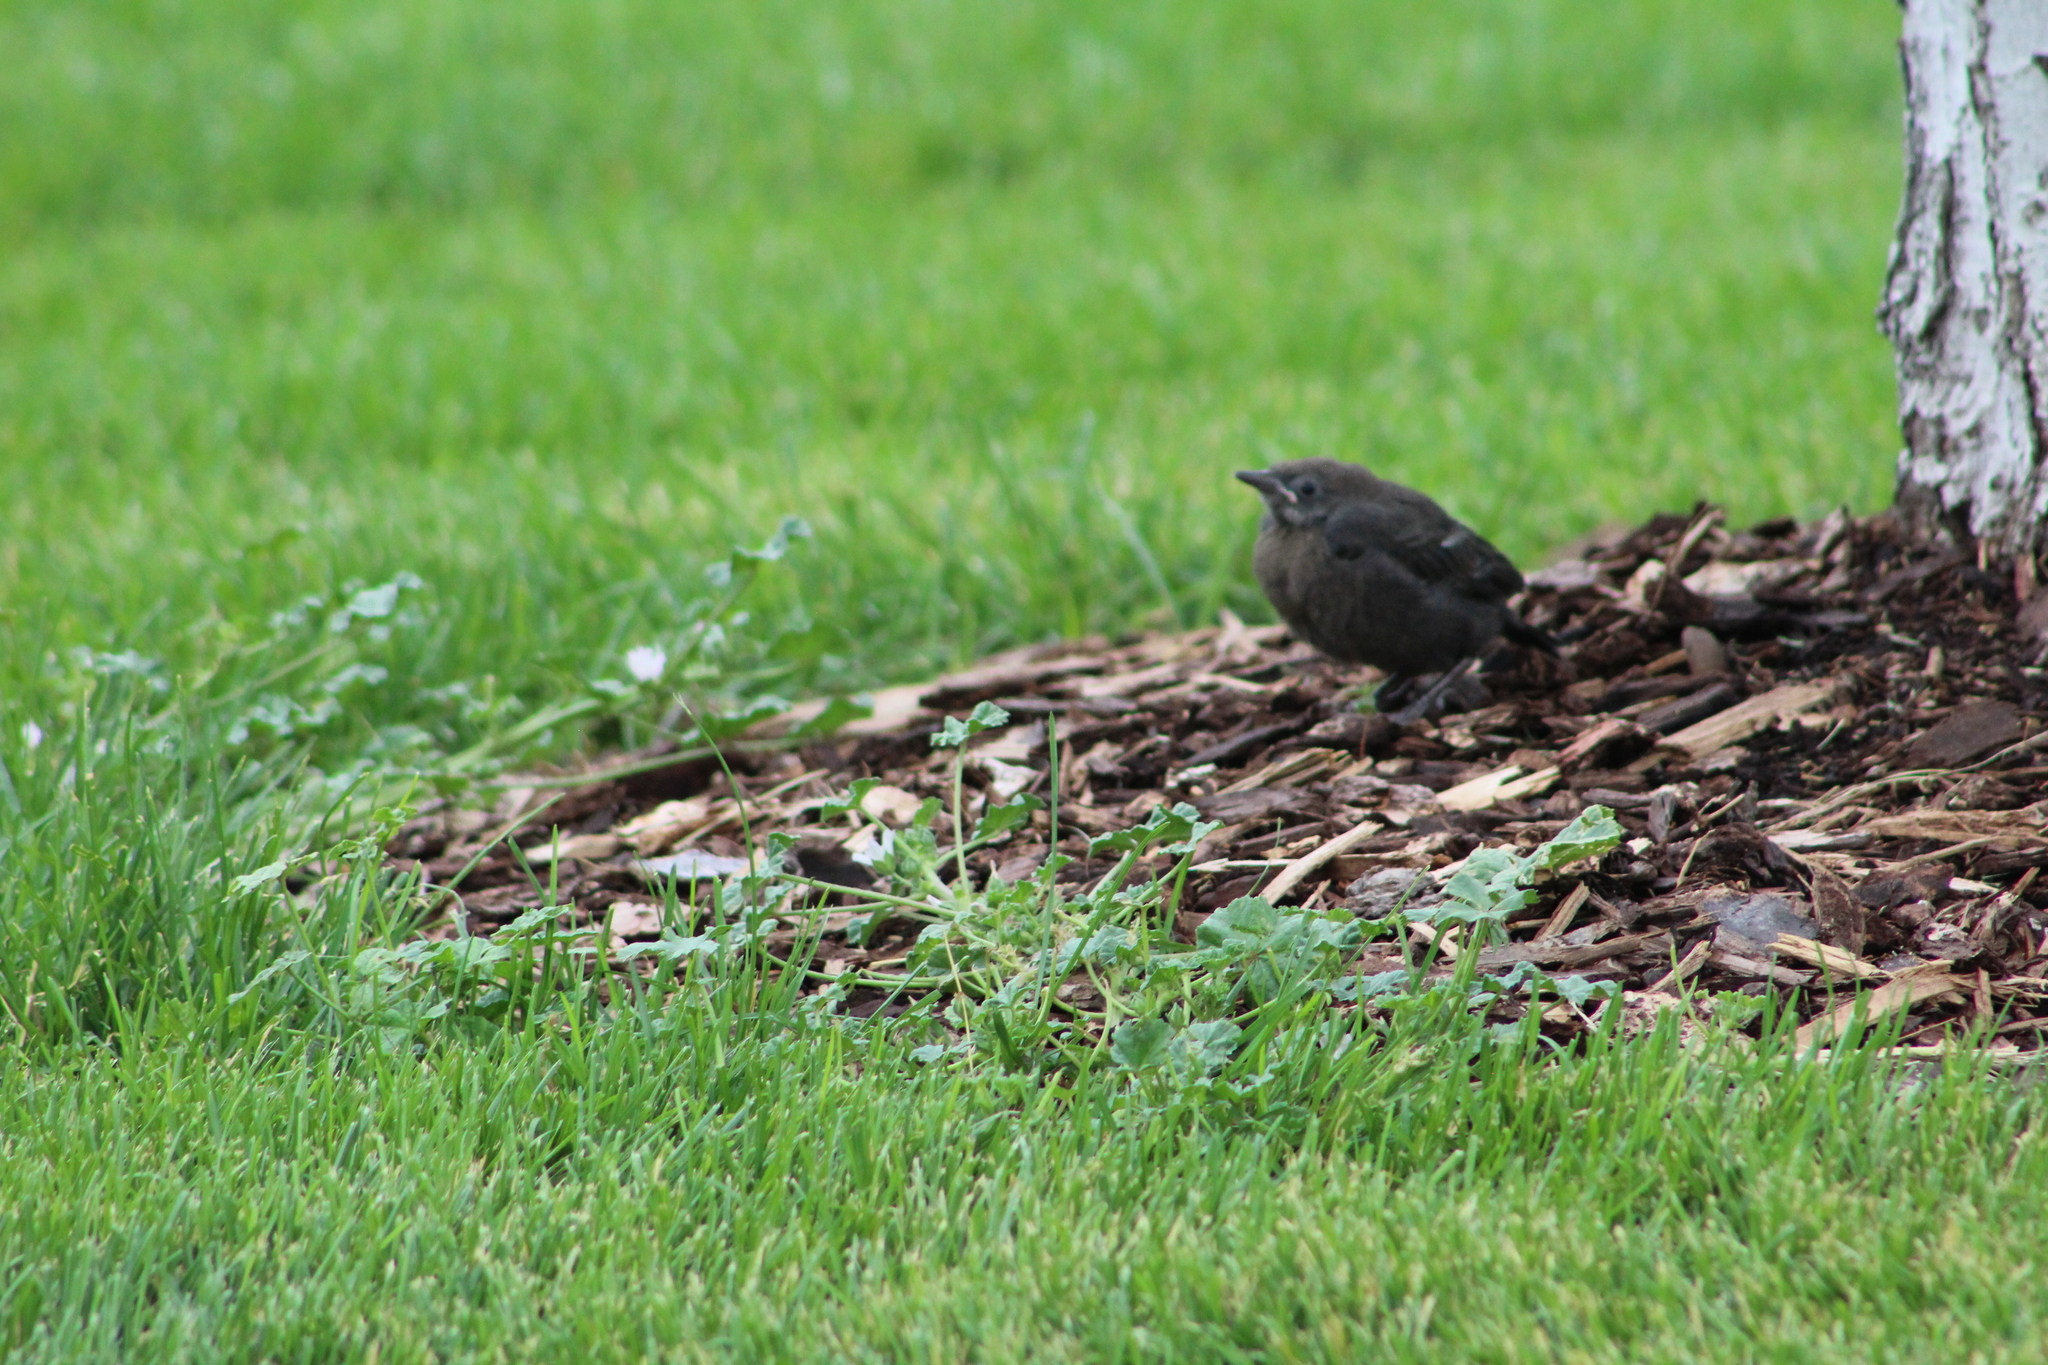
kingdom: Animalia
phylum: Chordata
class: Aves
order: Passeriformes
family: Icteridae
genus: Euphagus
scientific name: Euphagus cyanocephalus
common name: Brewer's blackbird
